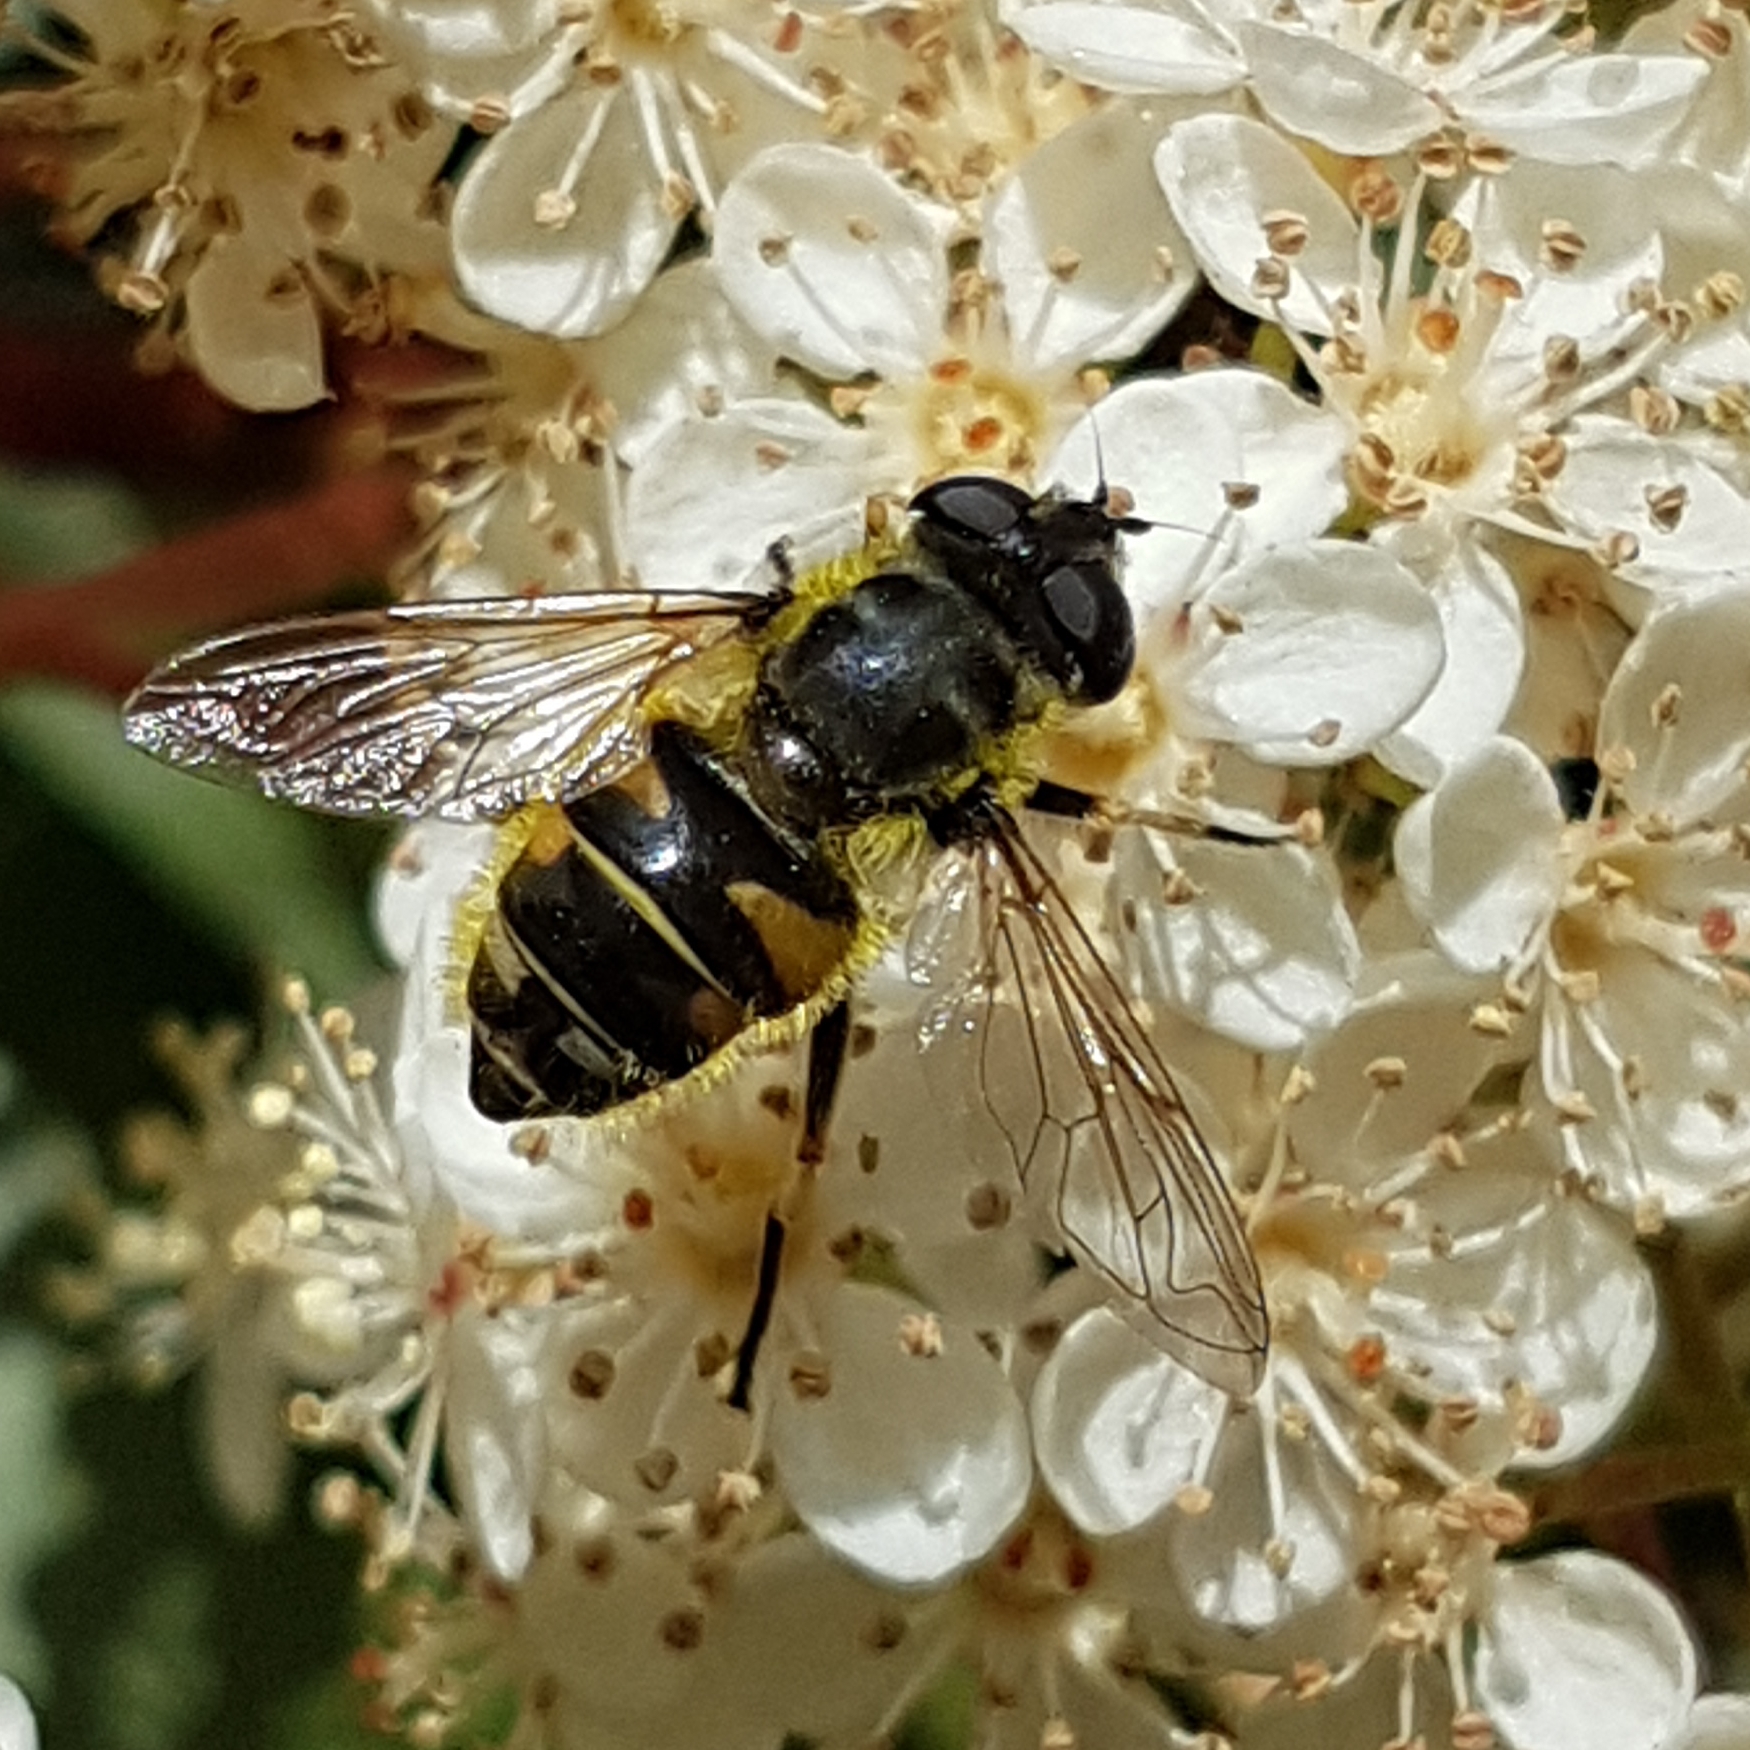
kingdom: Animalia
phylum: Arthropoda
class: Insecta
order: Diptera
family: Syrphidae
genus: Myathropa
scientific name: Myathropa florea
